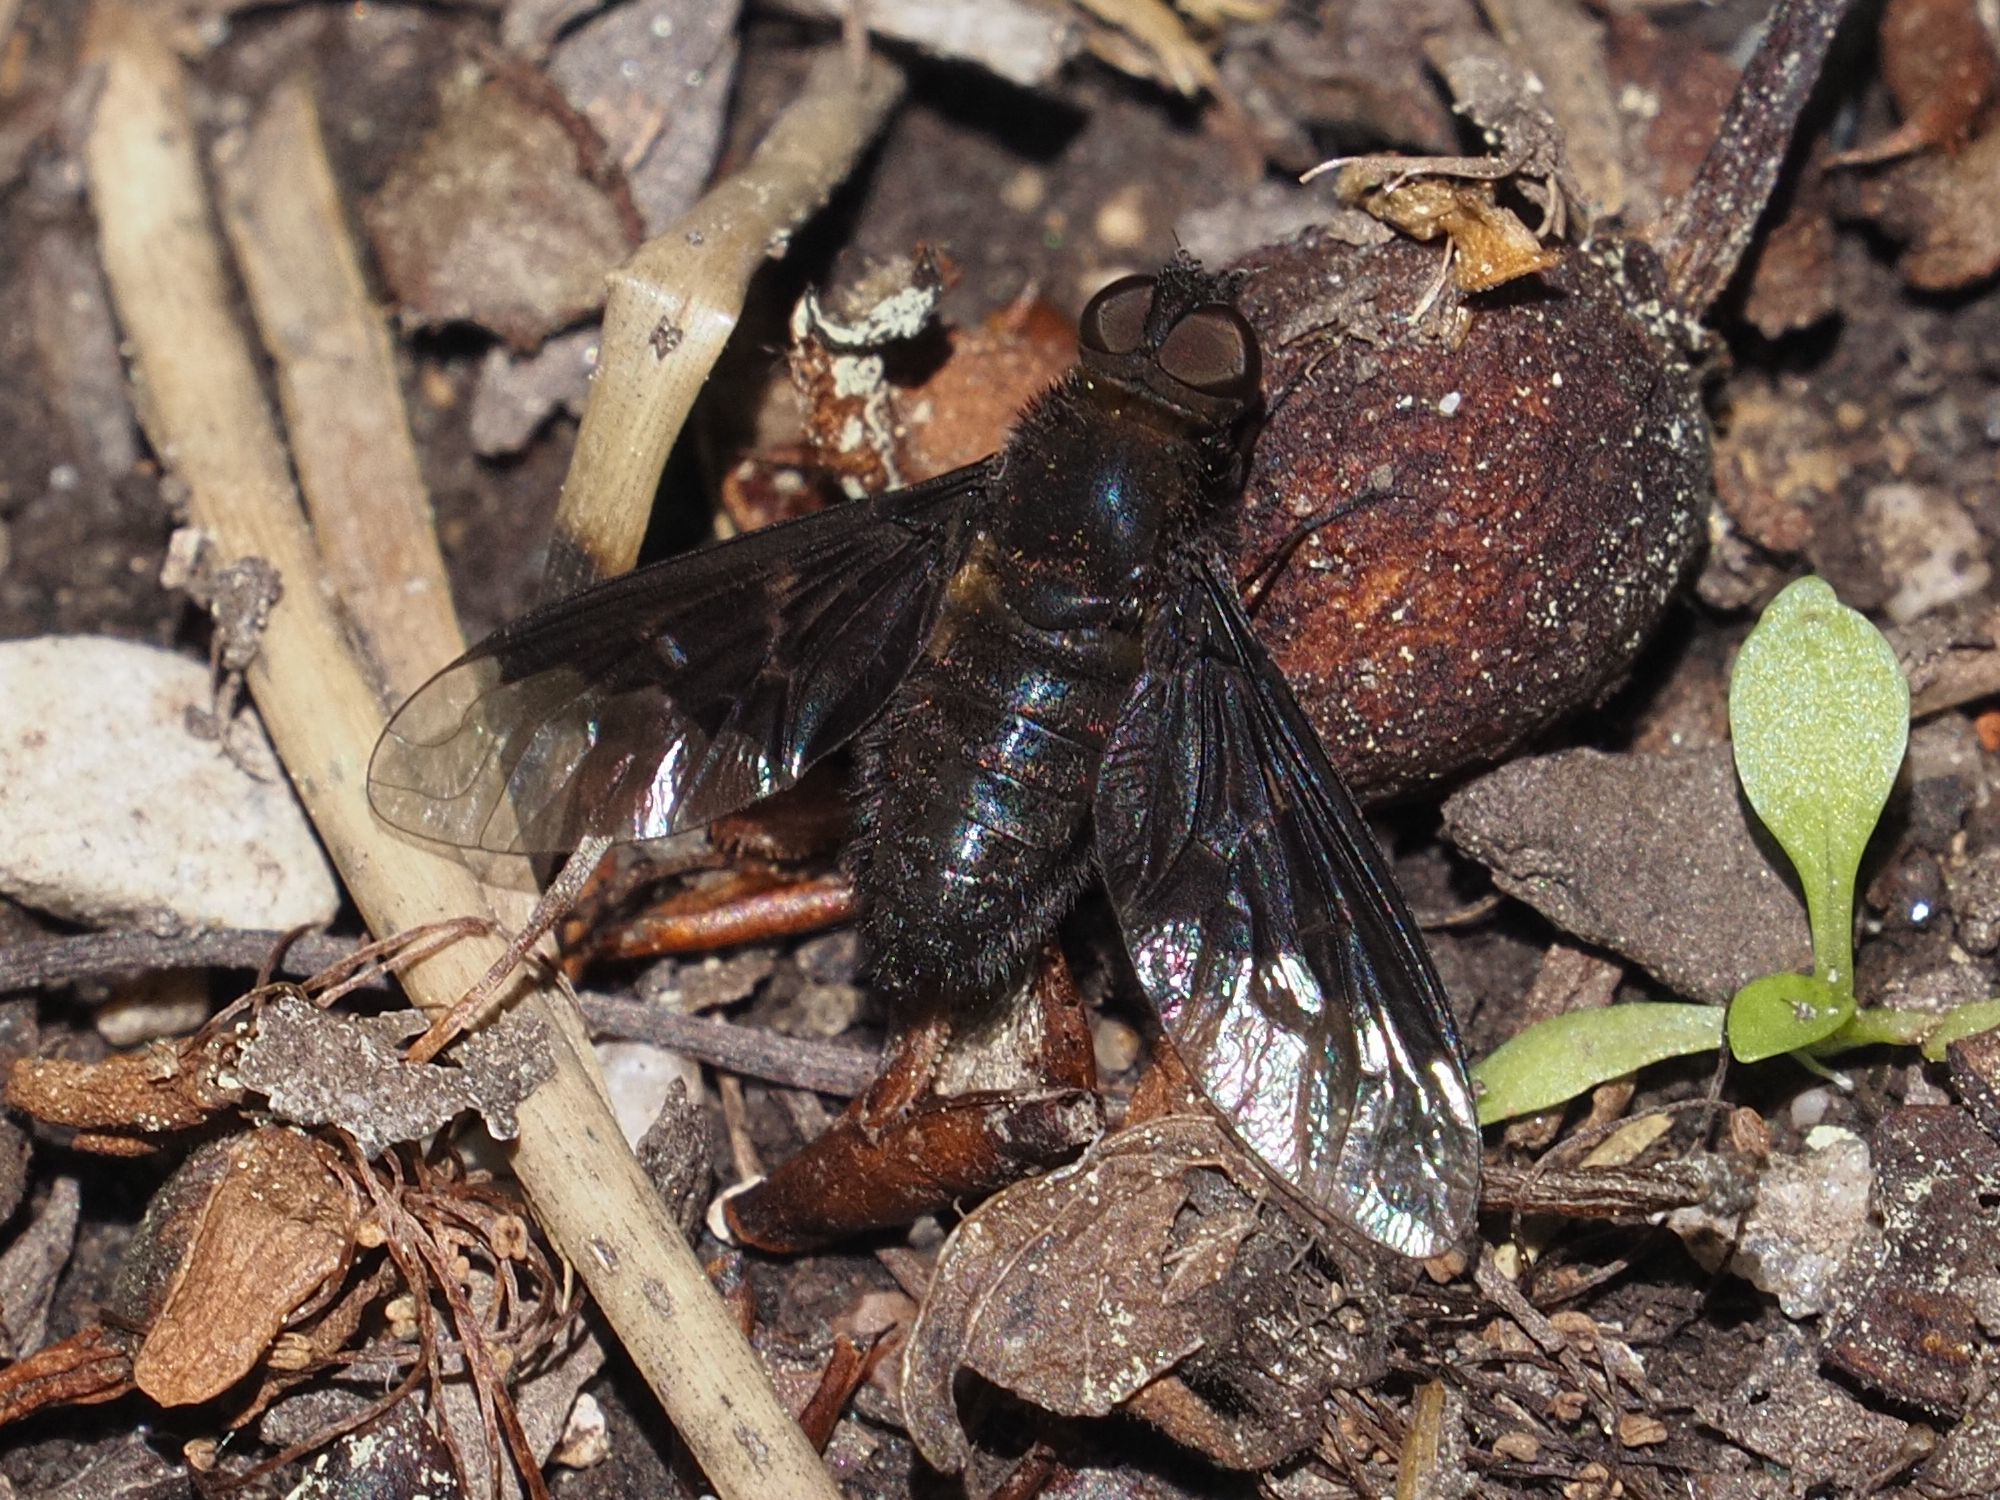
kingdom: Animalia
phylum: Arthropoda
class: Insecta
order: Diptera
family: Bombyliidae
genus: Hemipenthes
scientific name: Hemipenthes morio
